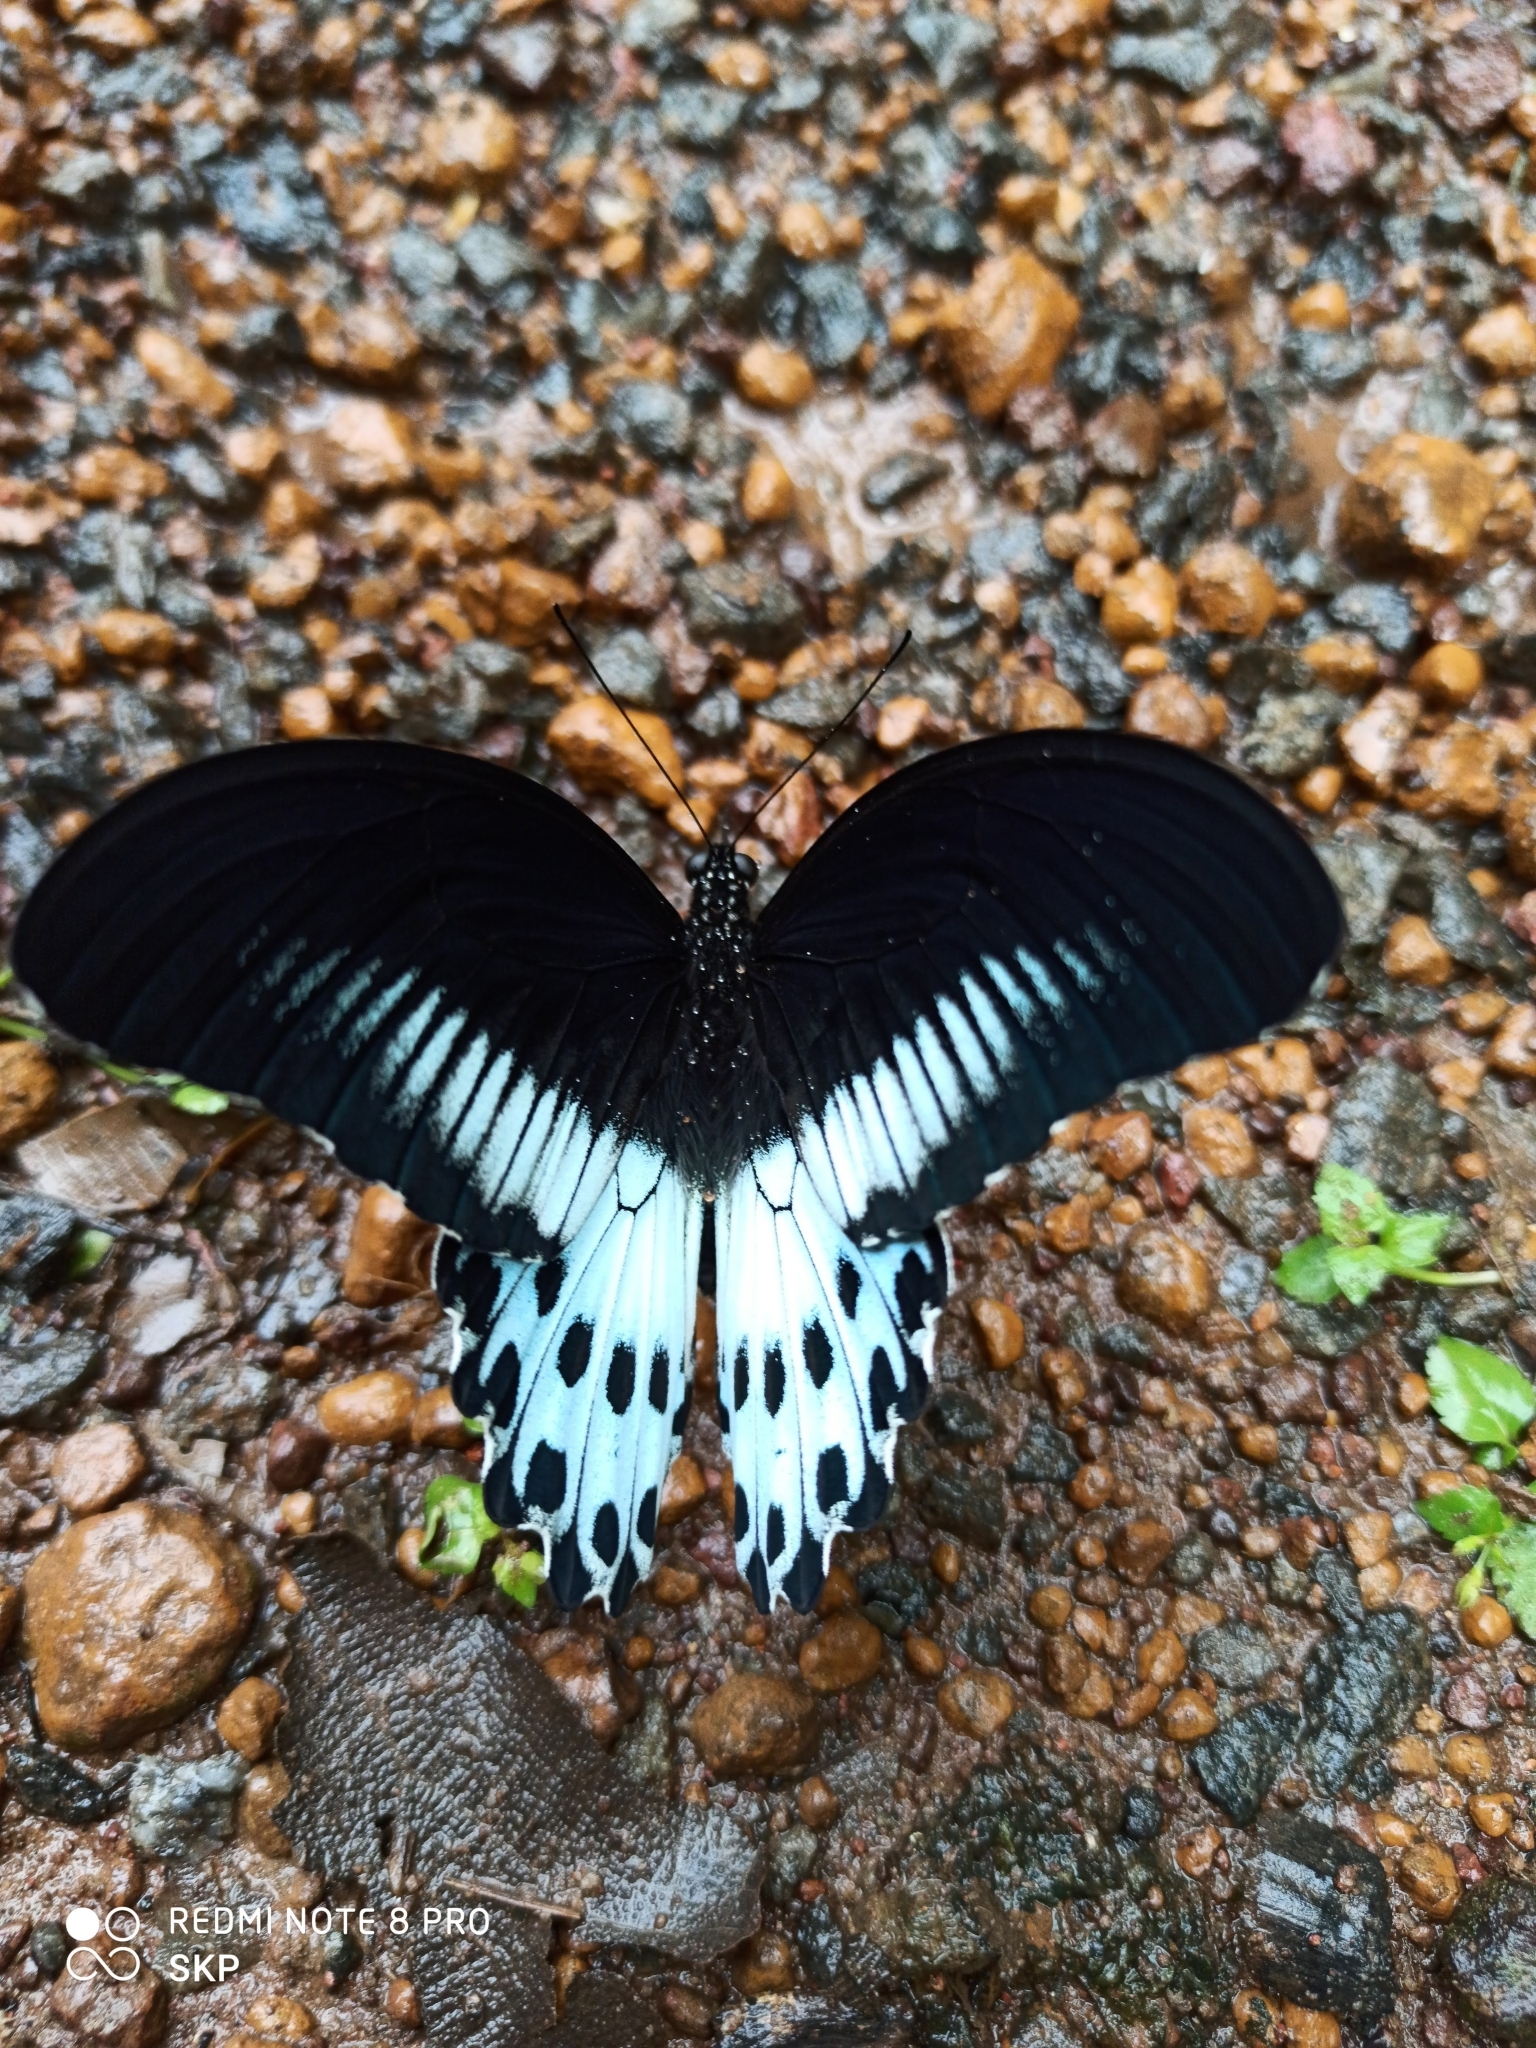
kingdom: Animalia
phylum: Arthropoda
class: Insecta
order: Lepidoptera
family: Papilionidae
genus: Papilio
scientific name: Papilio memnon
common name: Great mormon
